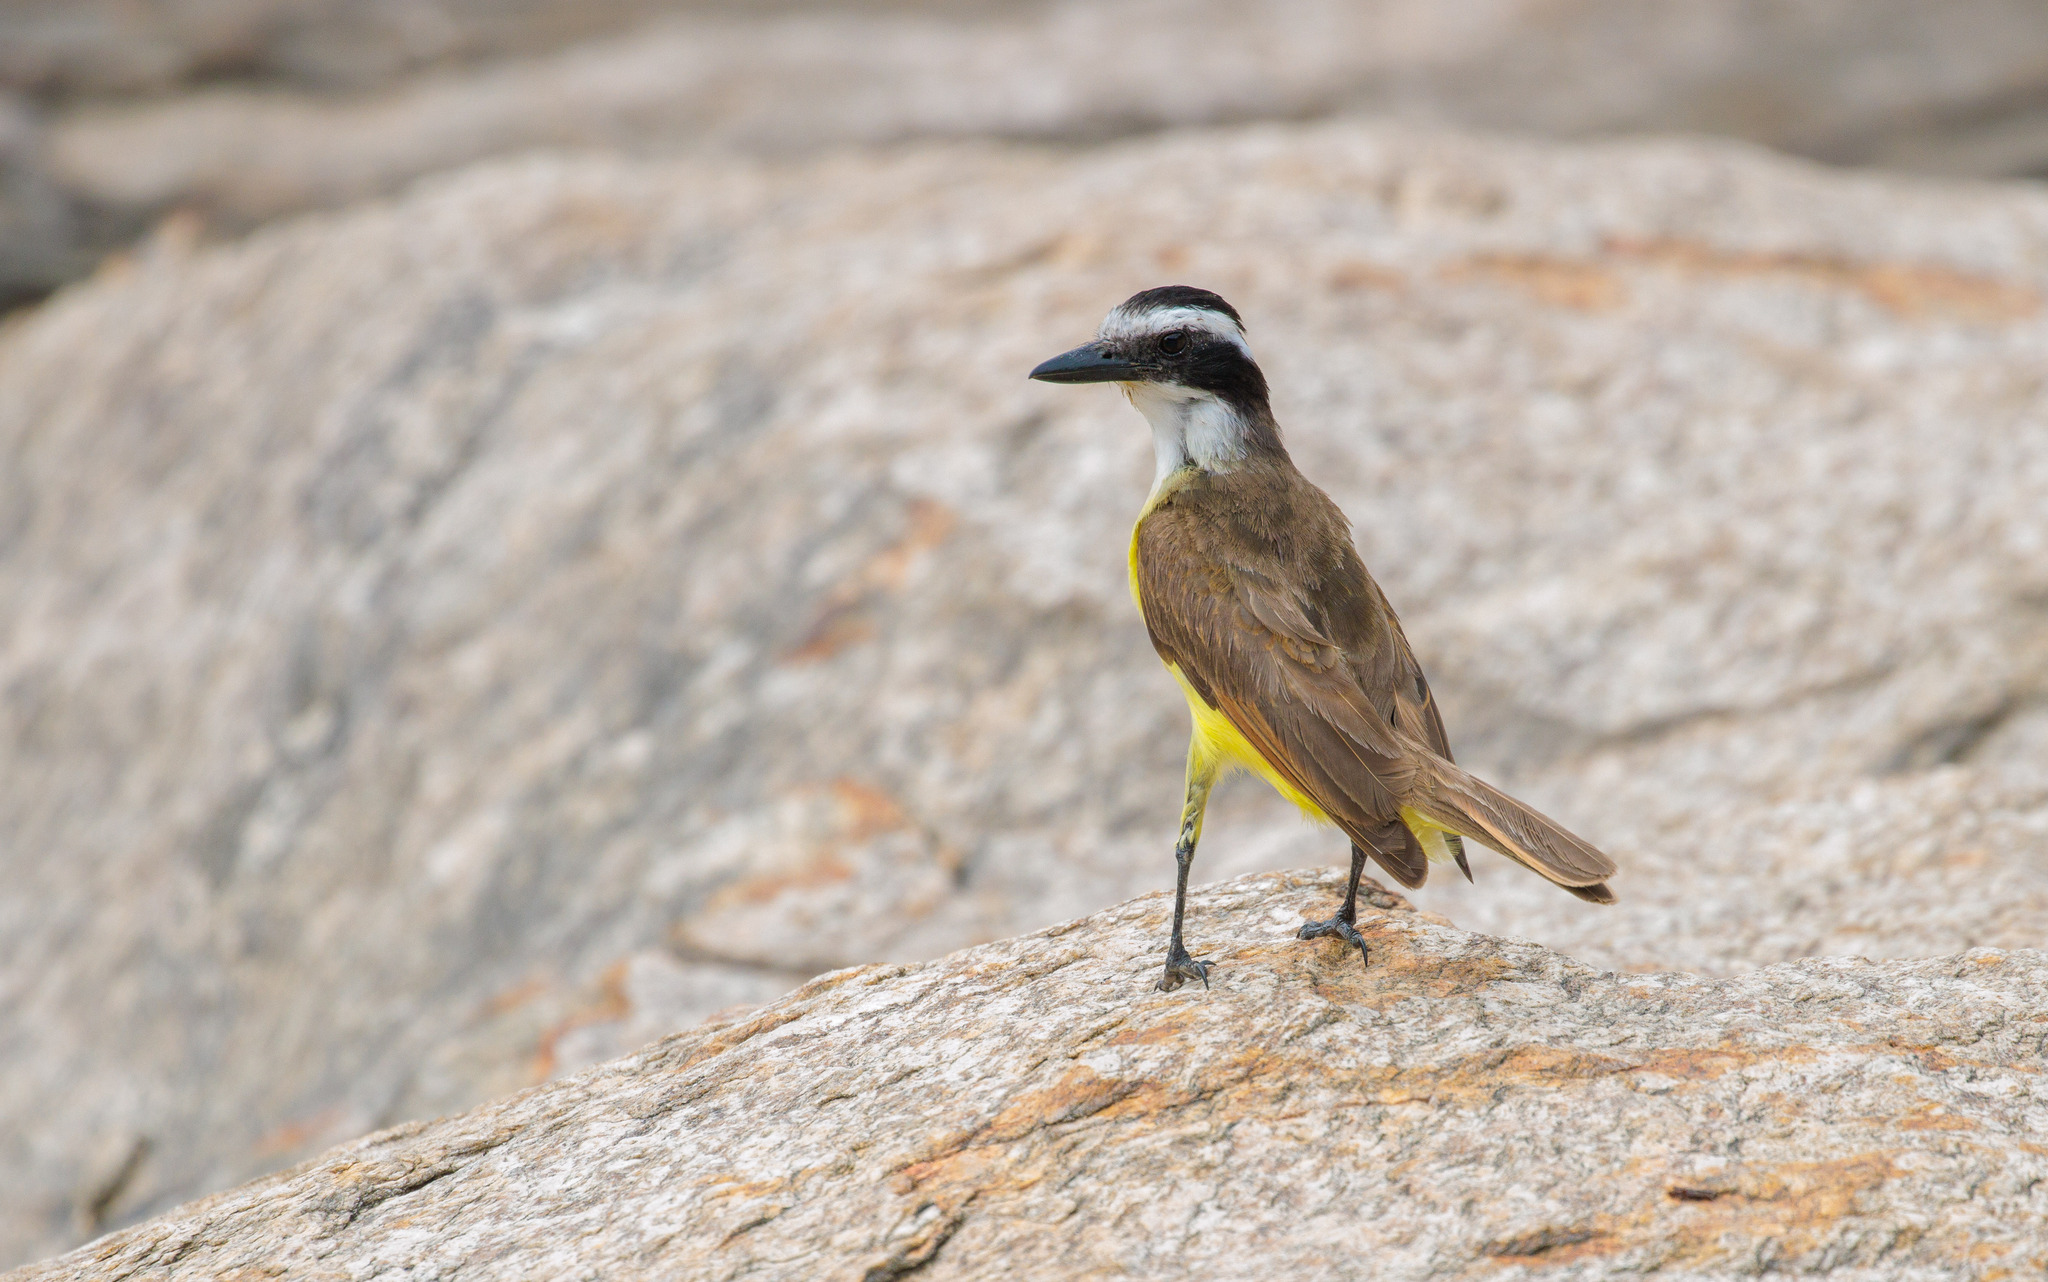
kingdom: Animalia
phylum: Chordata
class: Aves
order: Passeriformes
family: Tyrannidae
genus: Pitangus
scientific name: Pitangus sulphuratus
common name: Great kiskadee
